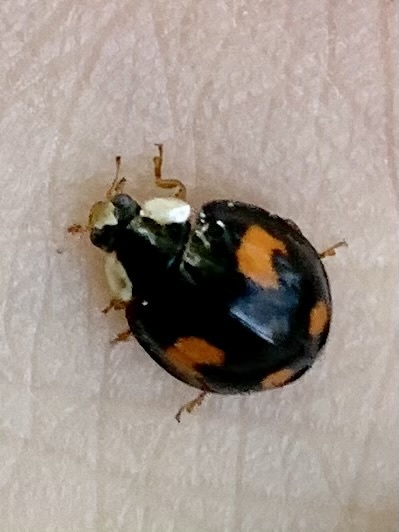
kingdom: Animalia
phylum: Arthropoda
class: Insecta
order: Coleoptera
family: Coccinellidae
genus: Harmonia
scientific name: Harmonia axyridis
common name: Harlequin ladybird
